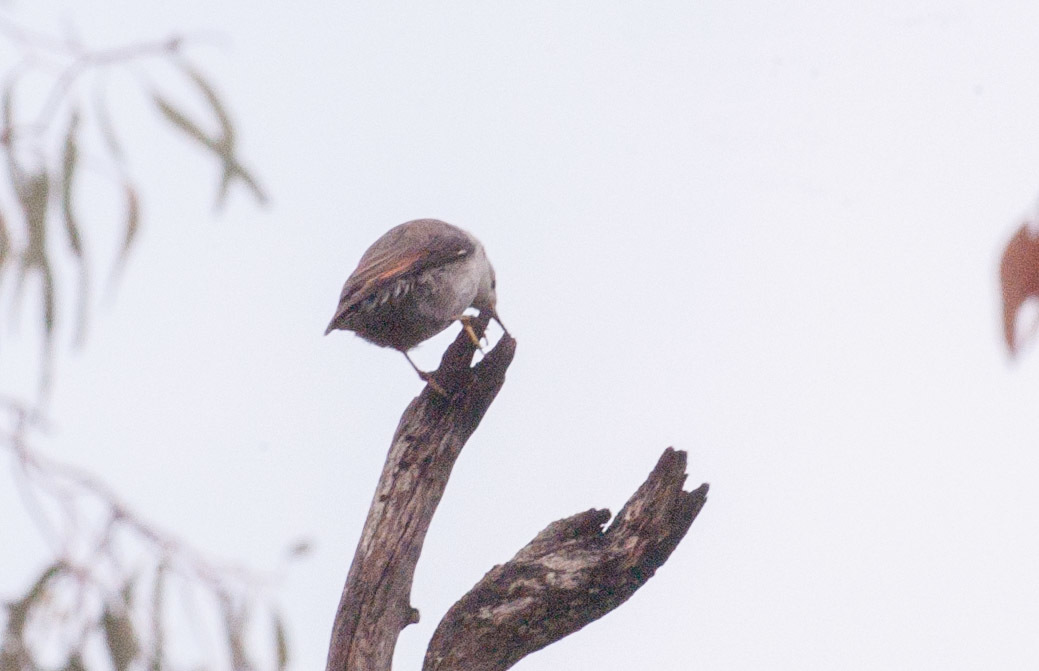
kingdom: Animalia
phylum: Chordata
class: Aves
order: Passeriformes
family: Neosittidae
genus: Daphoenositta
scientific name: Daphoenositta chrysoptera
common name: Varied sittella
